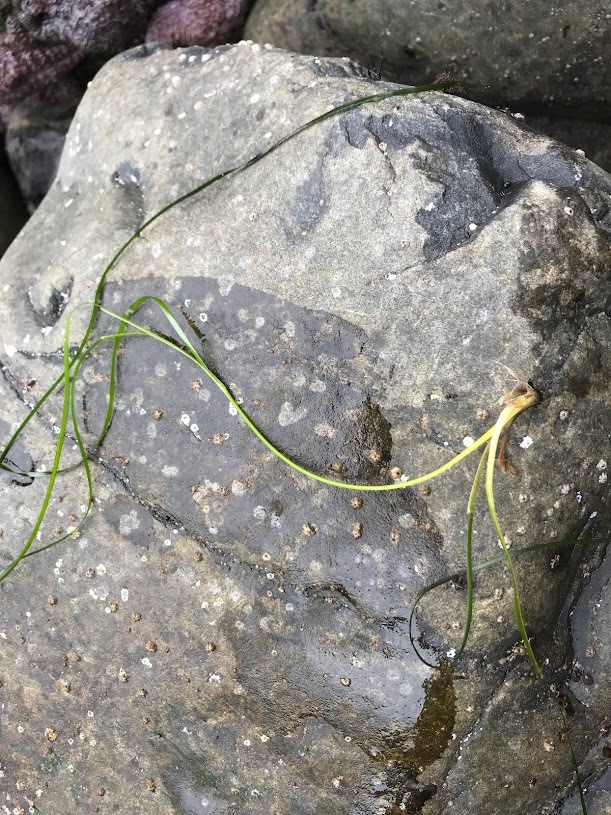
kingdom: Plantae
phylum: Tracheophyta
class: Liliopsida
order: Alismatales
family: Zosteraceae
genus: Phyllospadix
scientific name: Phyllospadix torreyi
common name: Surfgrass
